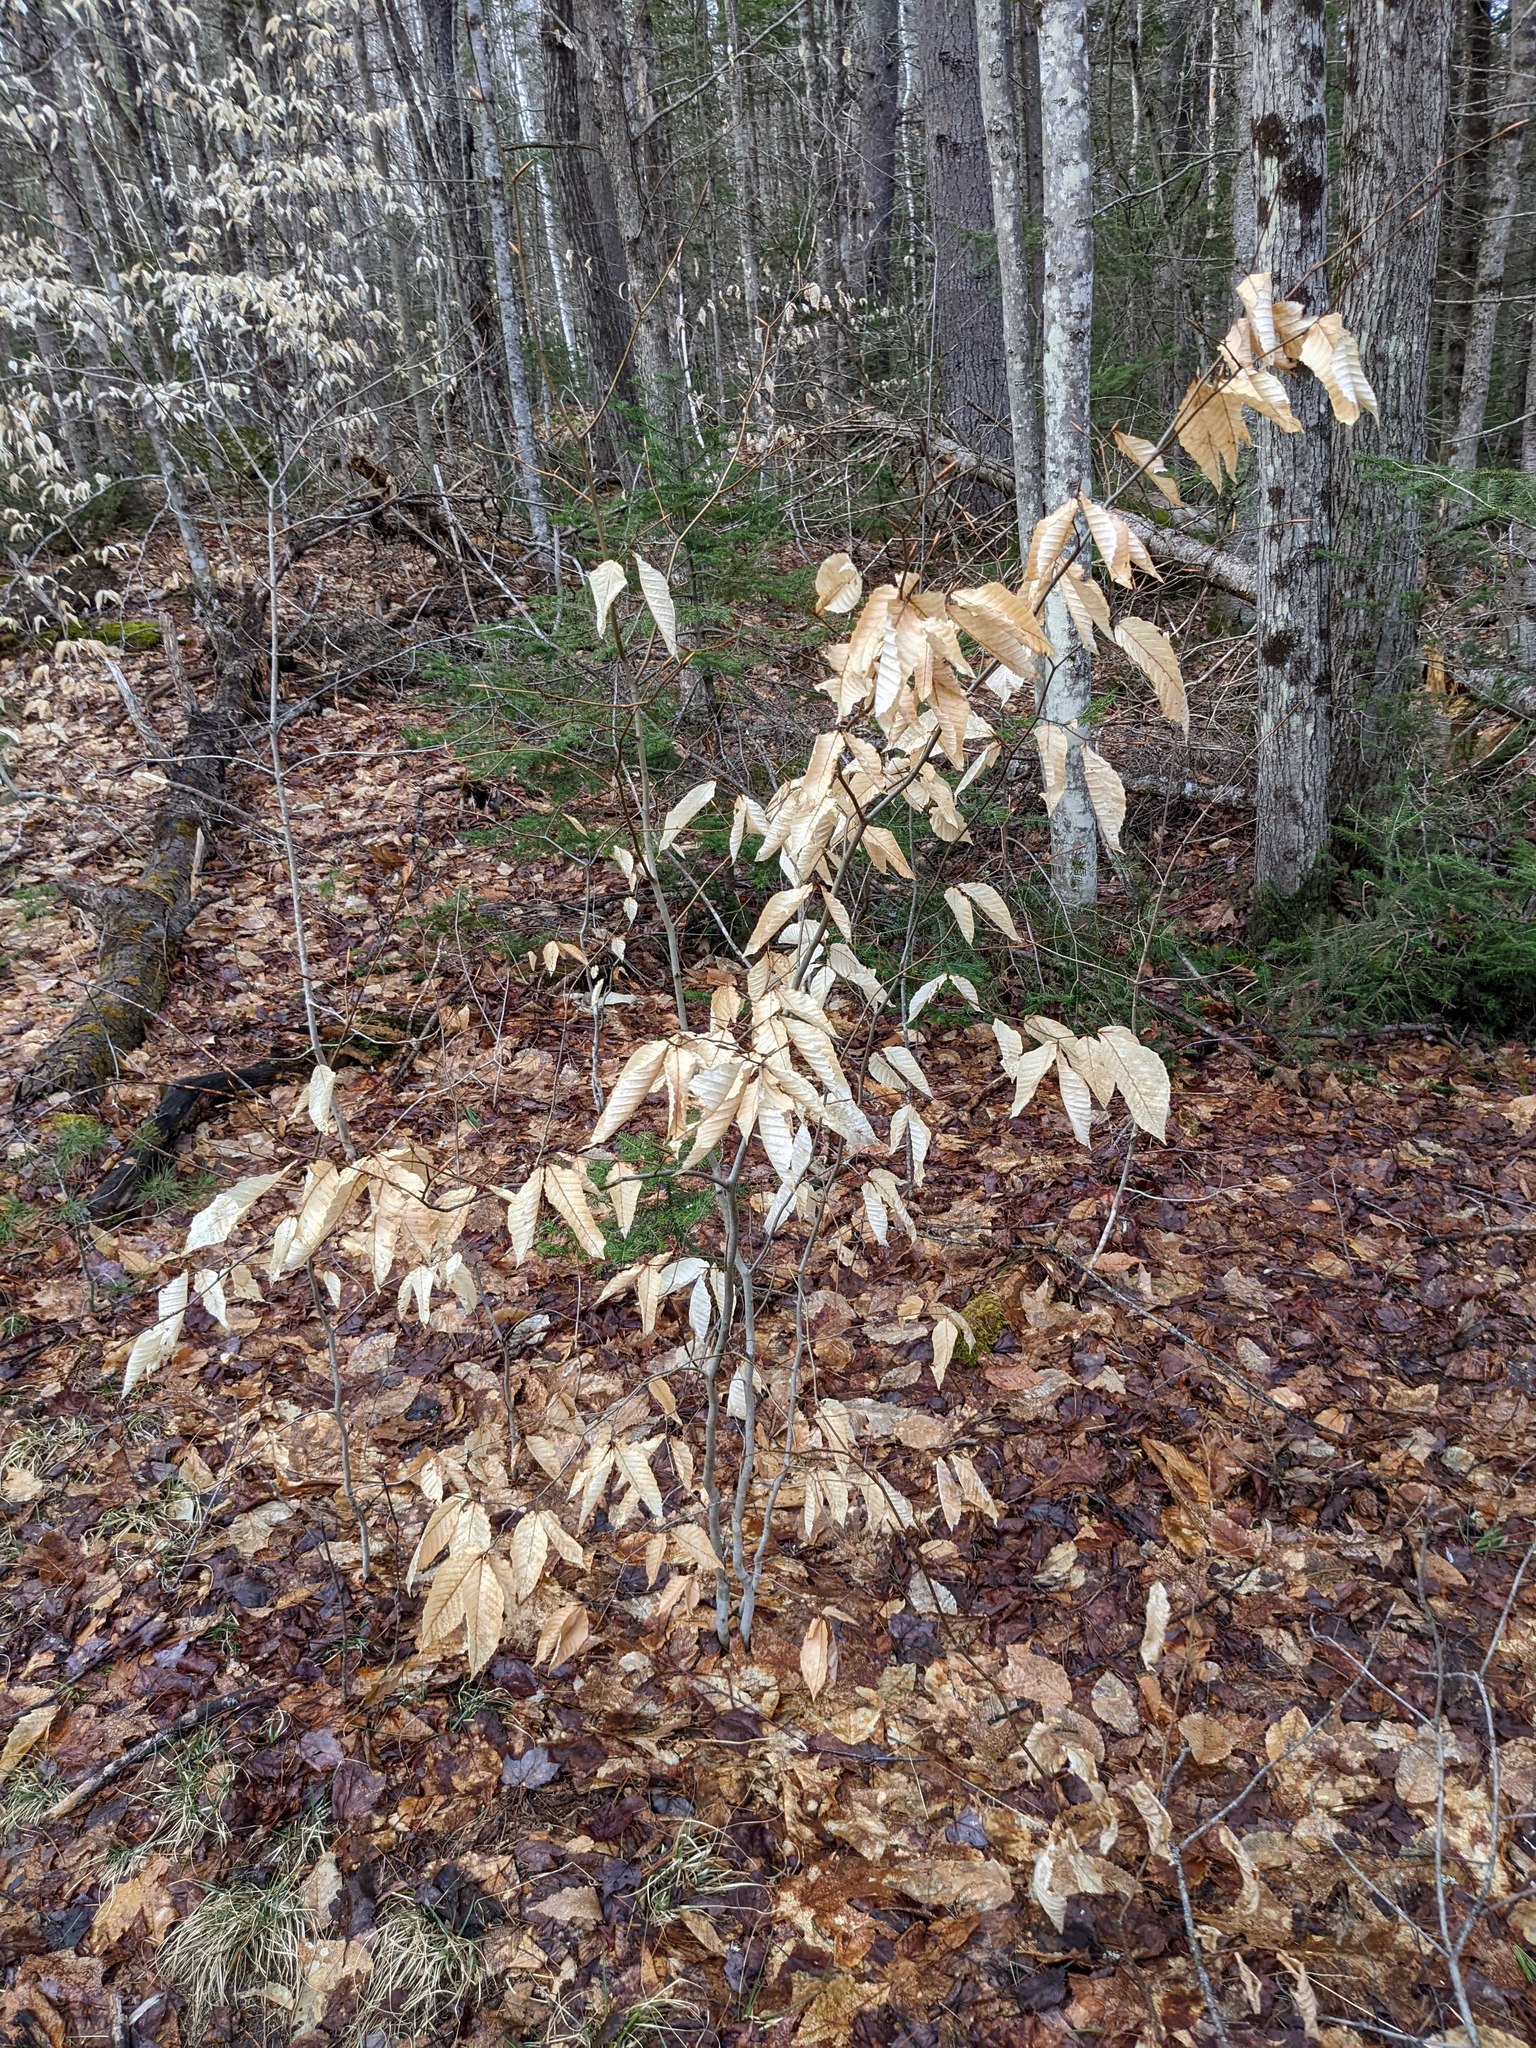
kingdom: Plantae
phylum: Tracheophyta
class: Magnoliopsida
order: Fagales
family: Fagaceae
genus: Fagus
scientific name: Fagus grandifolia
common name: American beech
